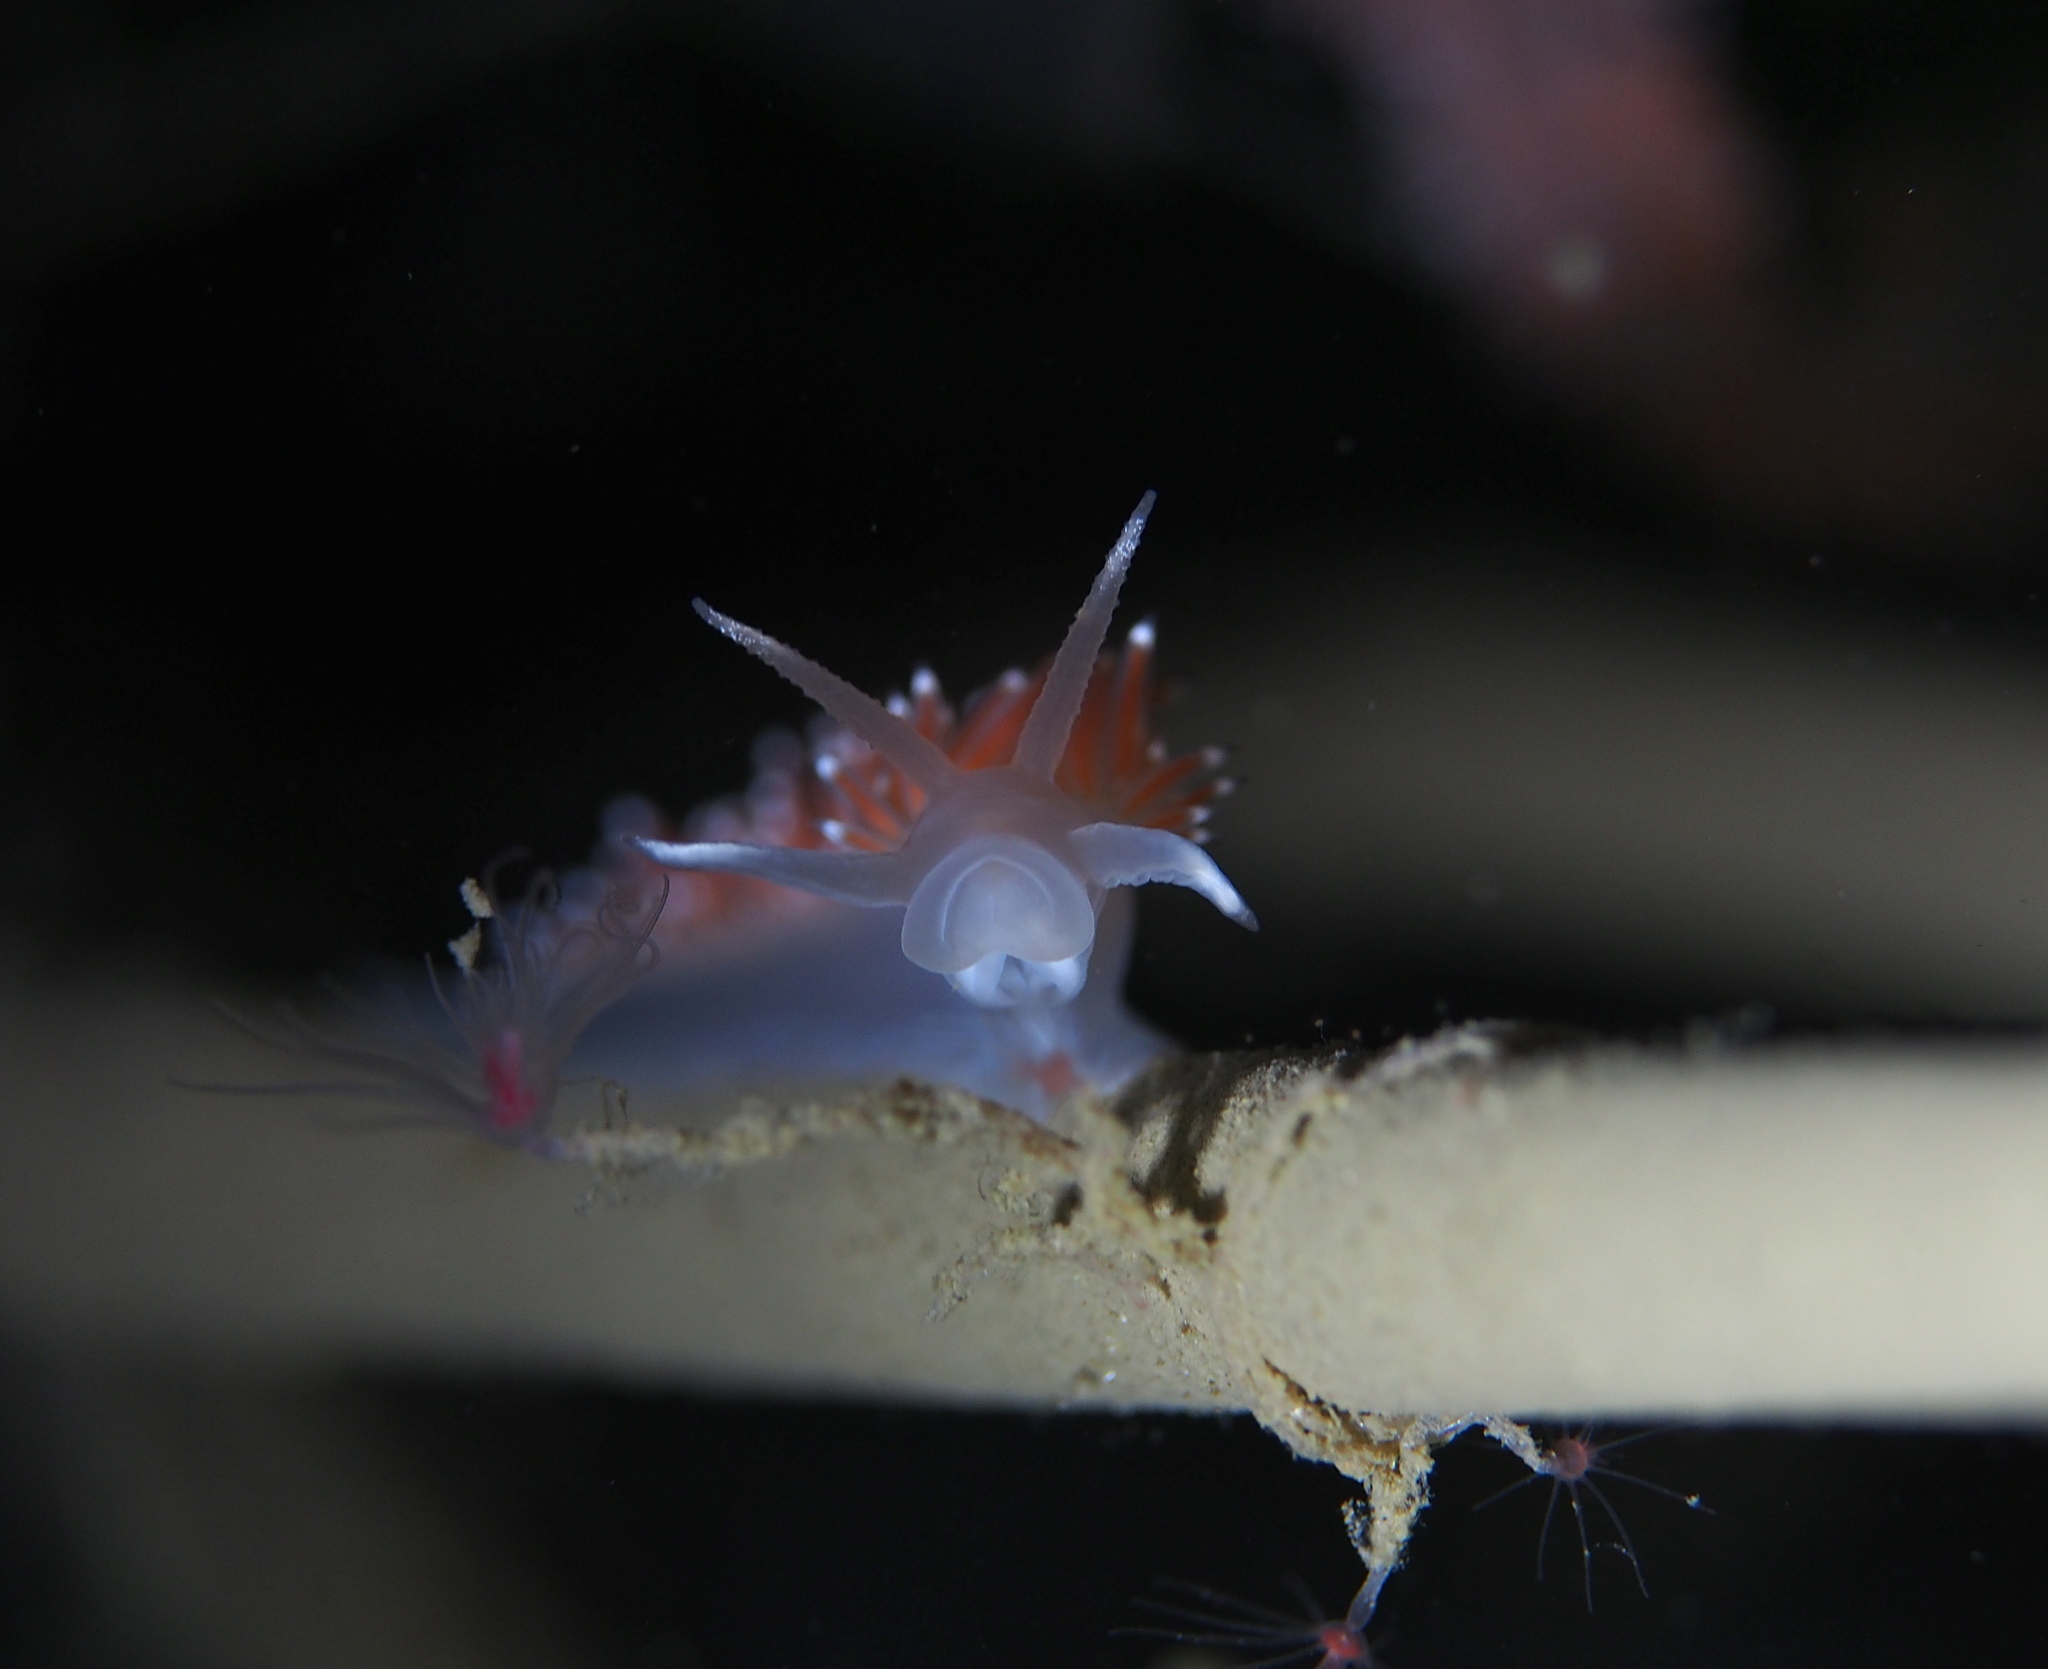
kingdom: Animalia
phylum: Mollusca
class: Gastropoda
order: Nudibranchia
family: Coryphellidae
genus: Coryphella
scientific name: Coryphella verrucosa
